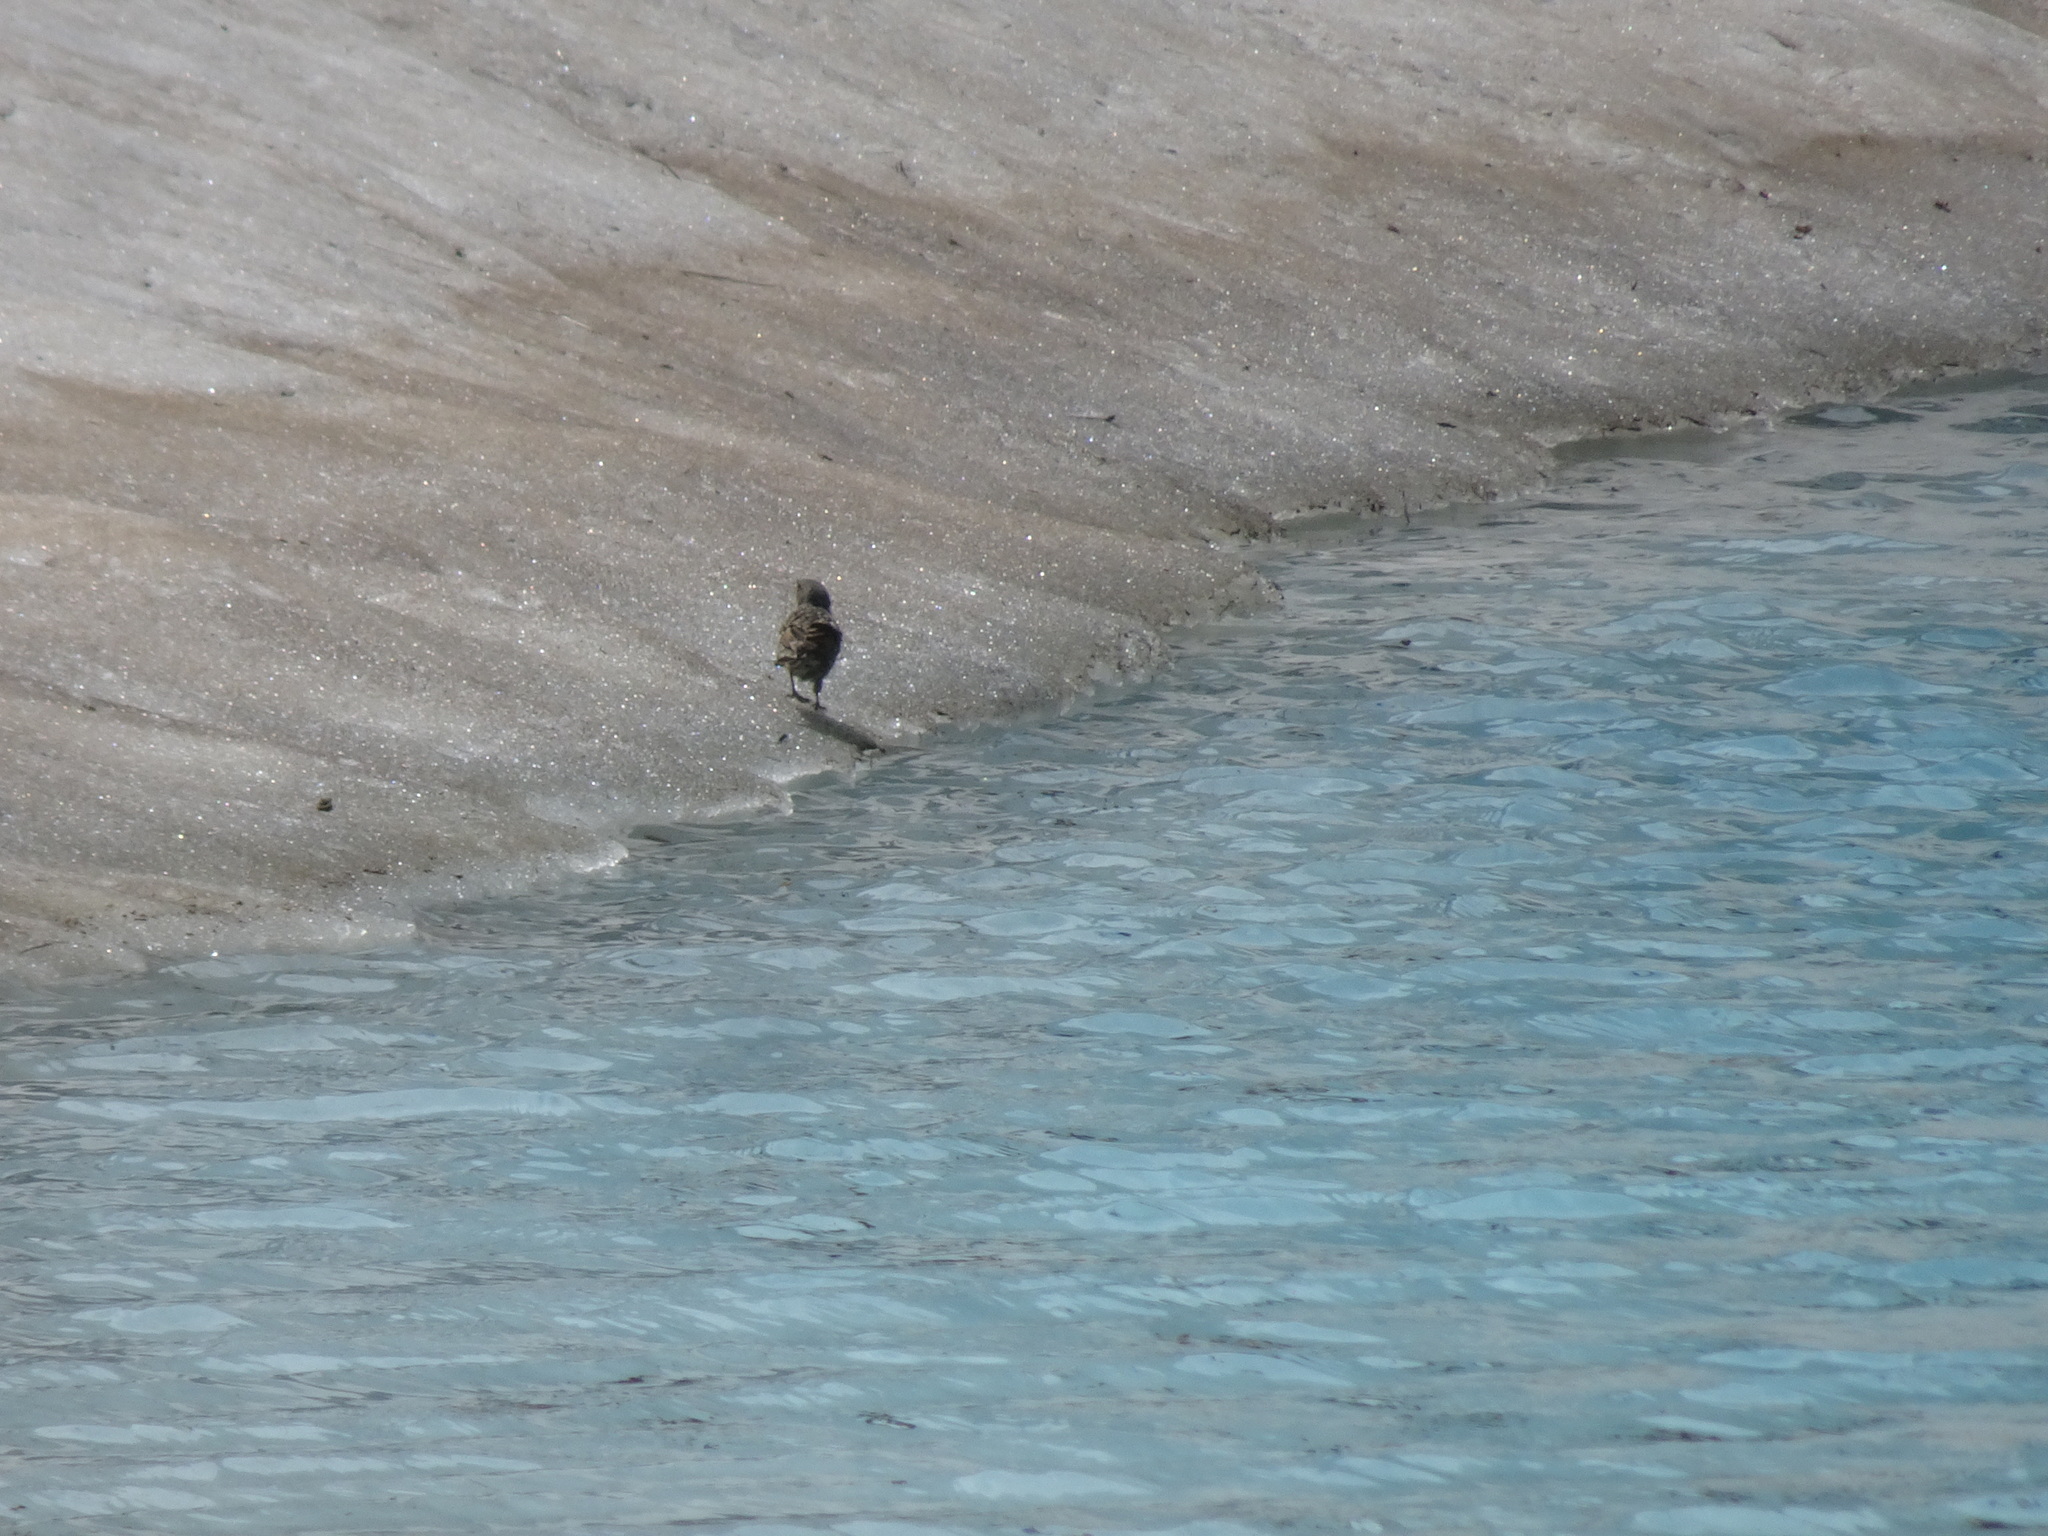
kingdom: Animalia
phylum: Chordata
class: Aves
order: Passeriformes
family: Prunellidae
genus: Prunella
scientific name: Prunella collaris
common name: Alpine accentor
